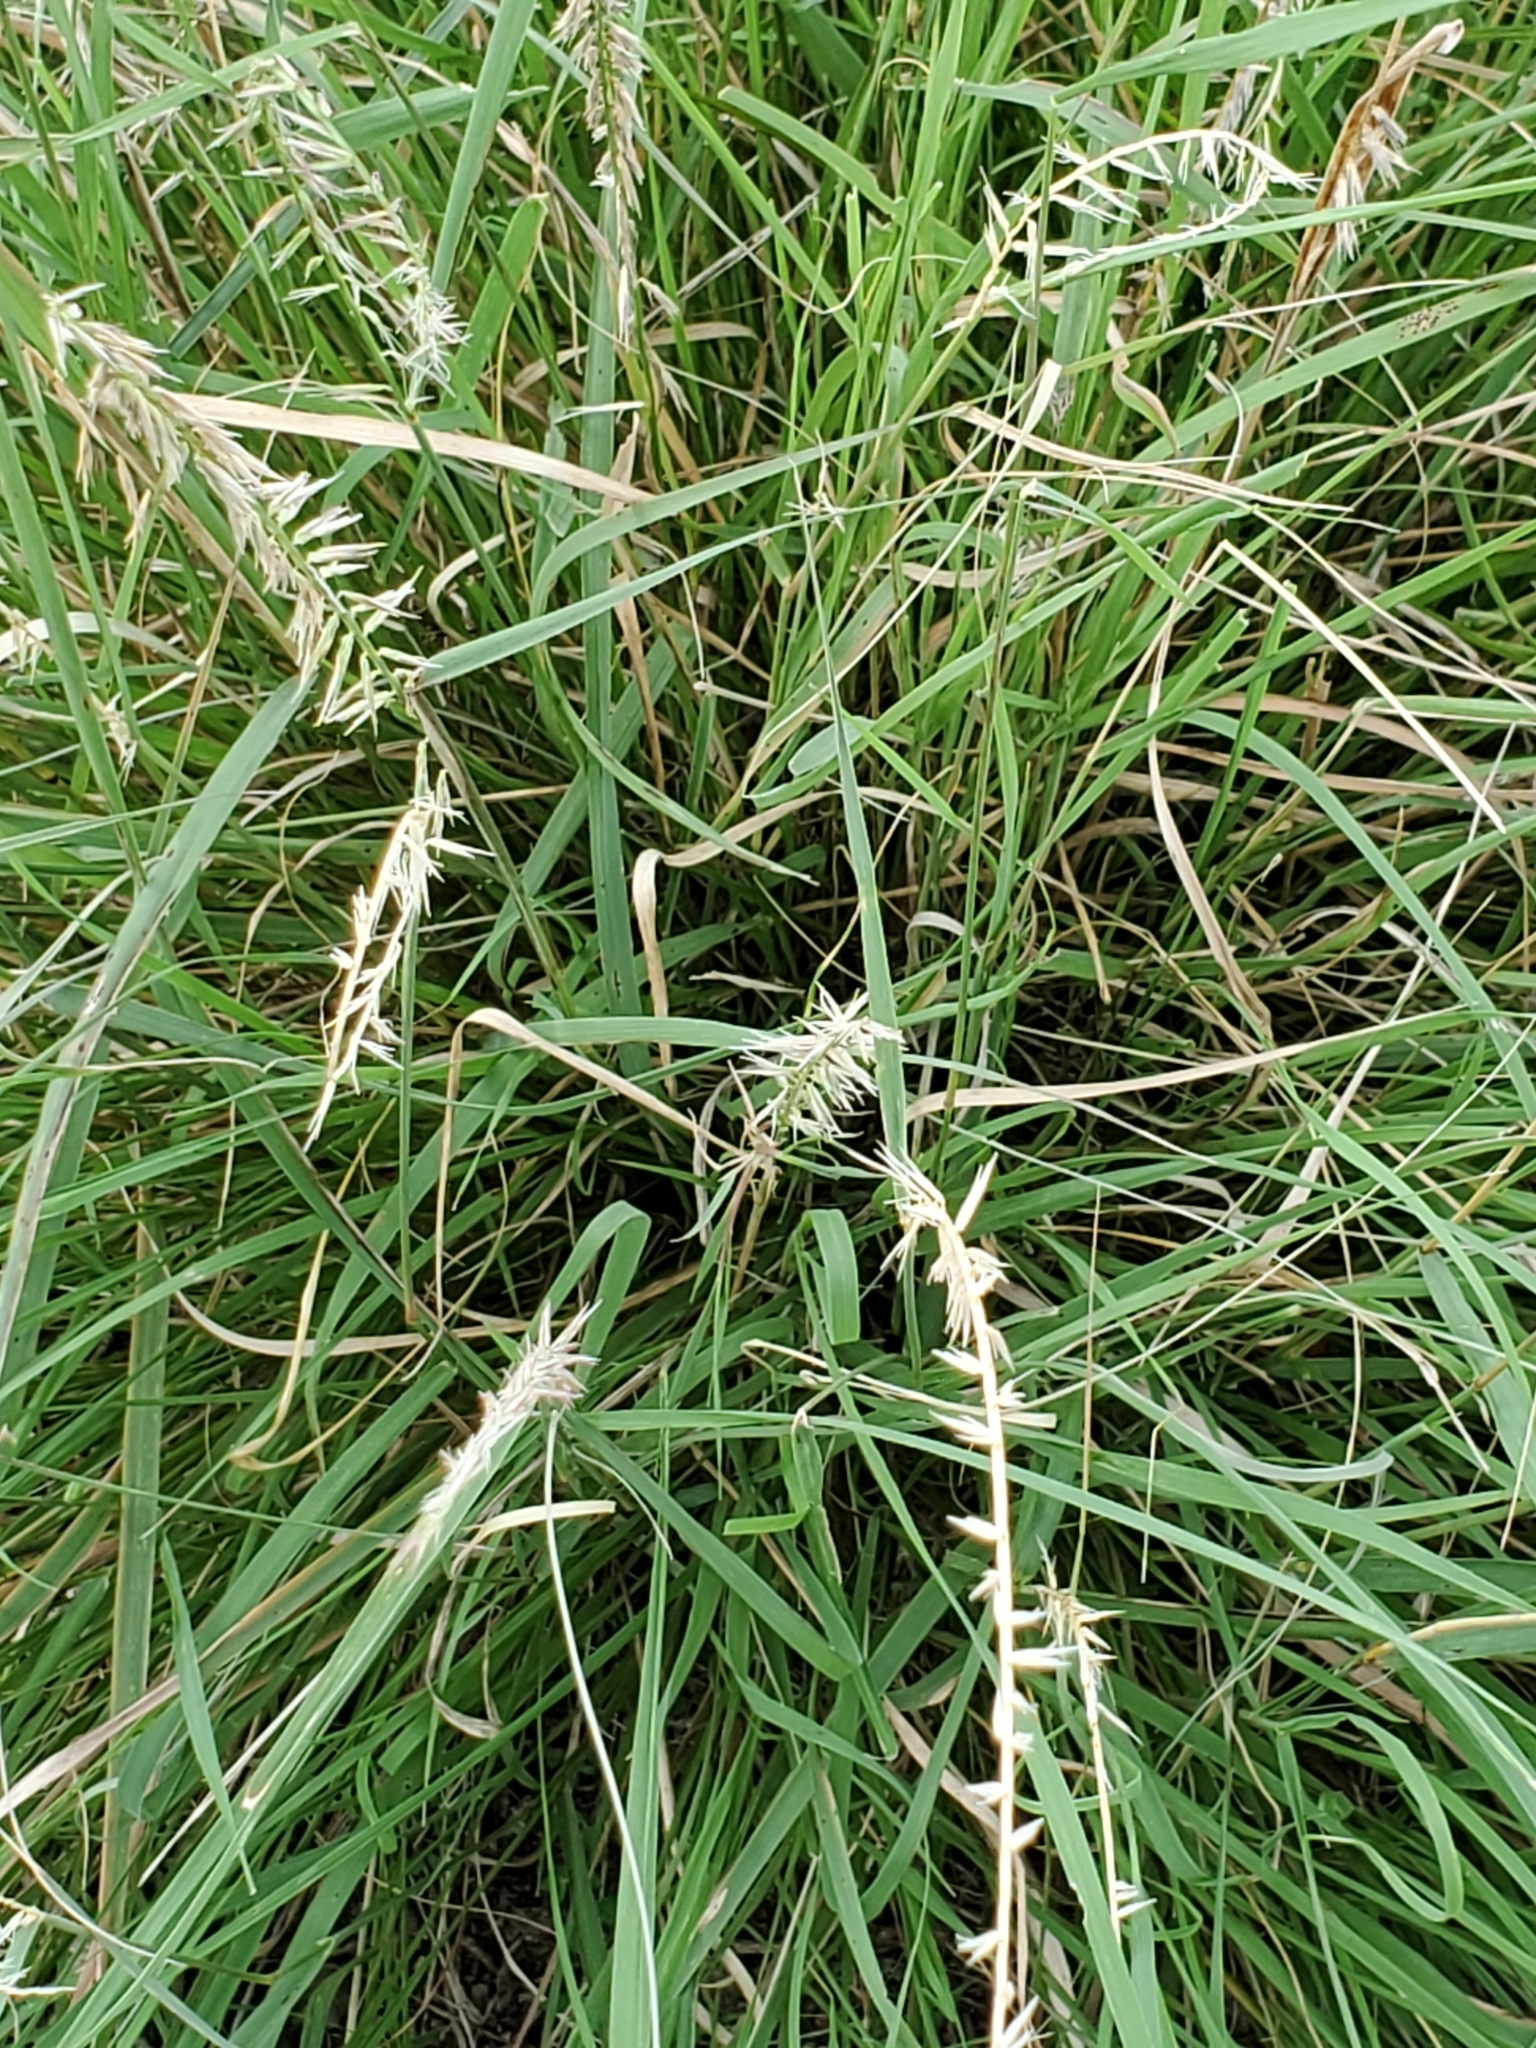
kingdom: Plantae
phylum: Tracheophyta
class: Liliopsida
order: Poales
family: Poaceae
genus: Bouteloua
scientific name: Bouteloua curtipendula
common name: Side-oats grama
